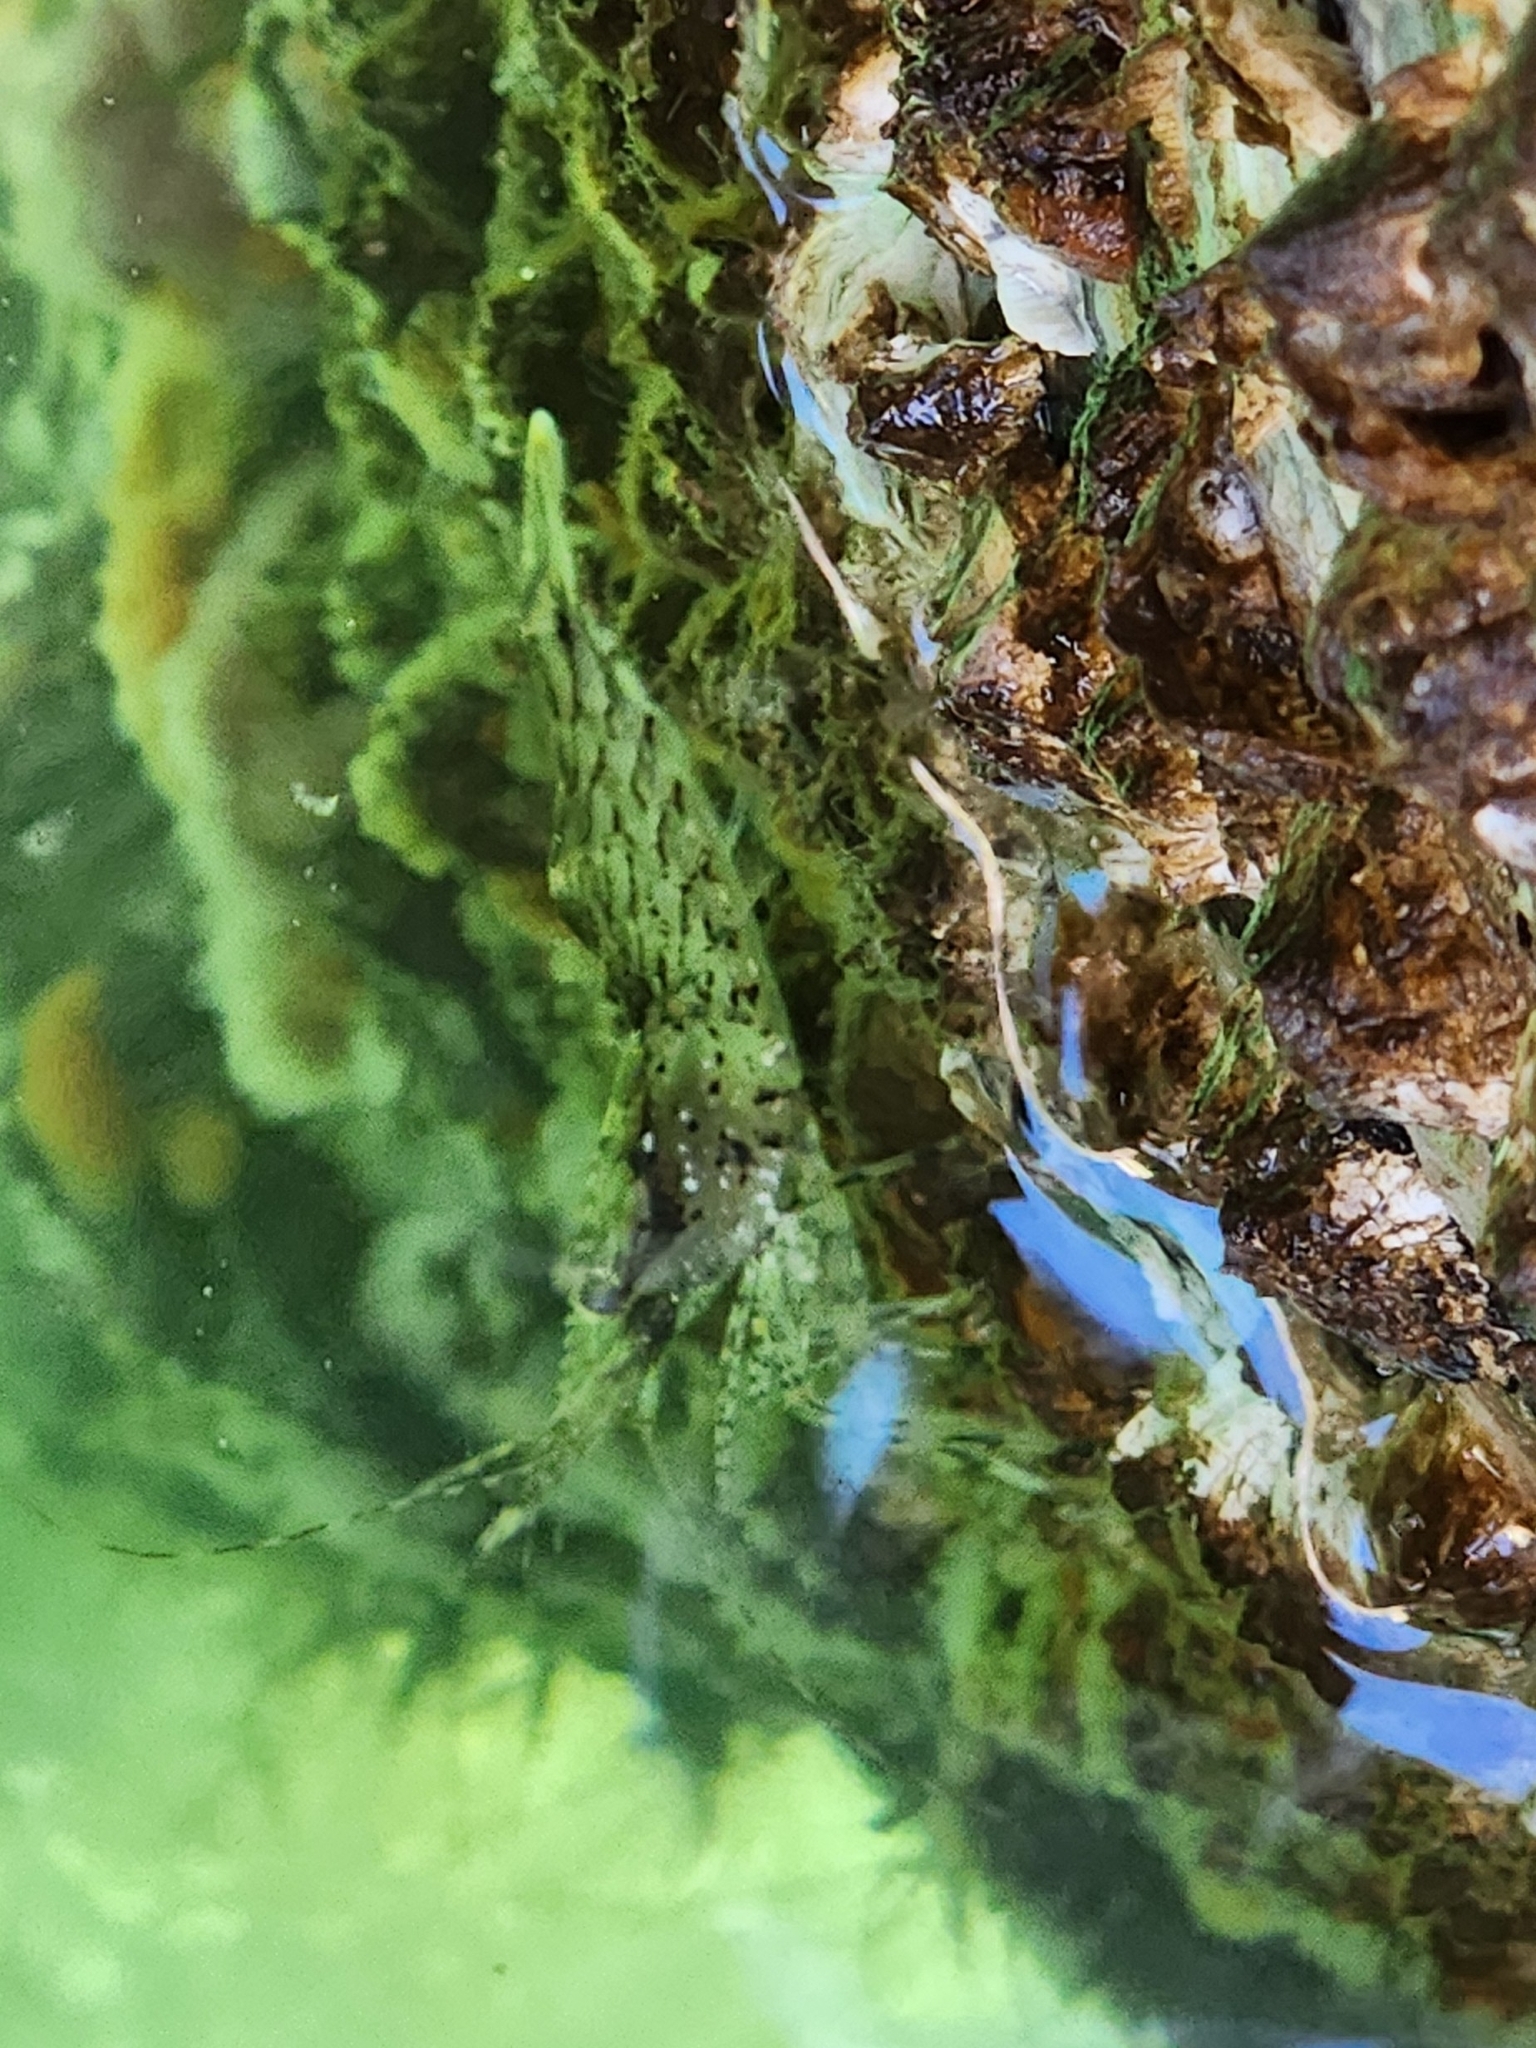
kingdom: Animalia
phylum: Arthropoda
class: Malacostraca
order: Decapoda
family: Pandalidae
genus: Pandalus
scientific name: Pandalus danae
